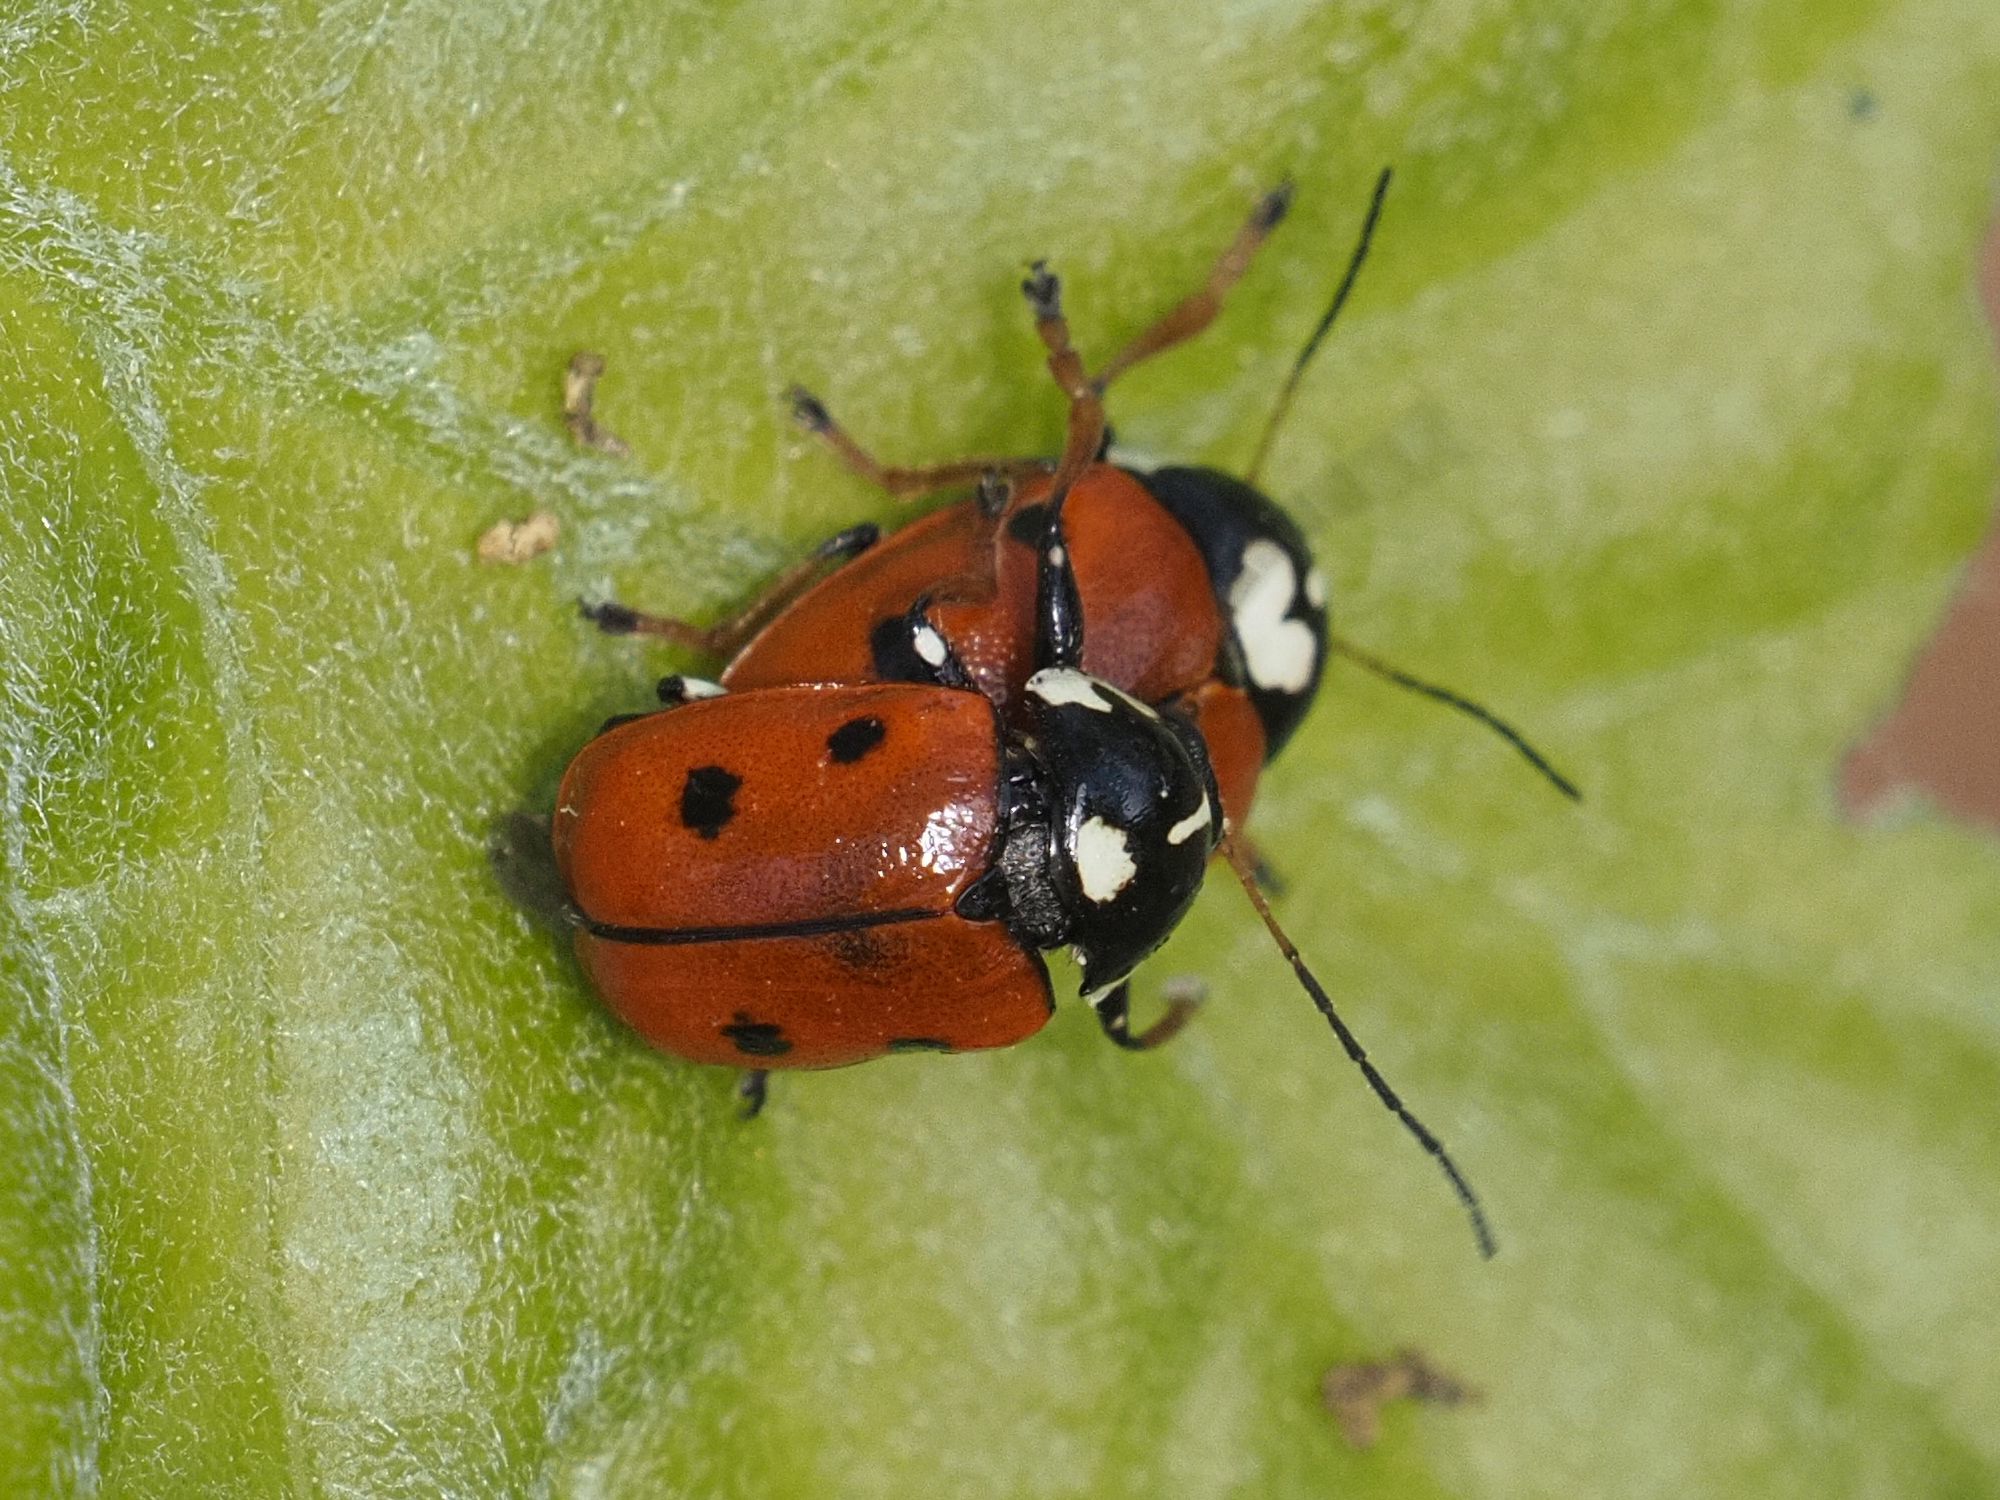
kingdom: Animalia
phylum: Arthropoda
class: Insecta
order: Coleoptera
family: Chrysomelidae
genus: Cryptocephalus
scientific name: Cryptocephalus cordiger
